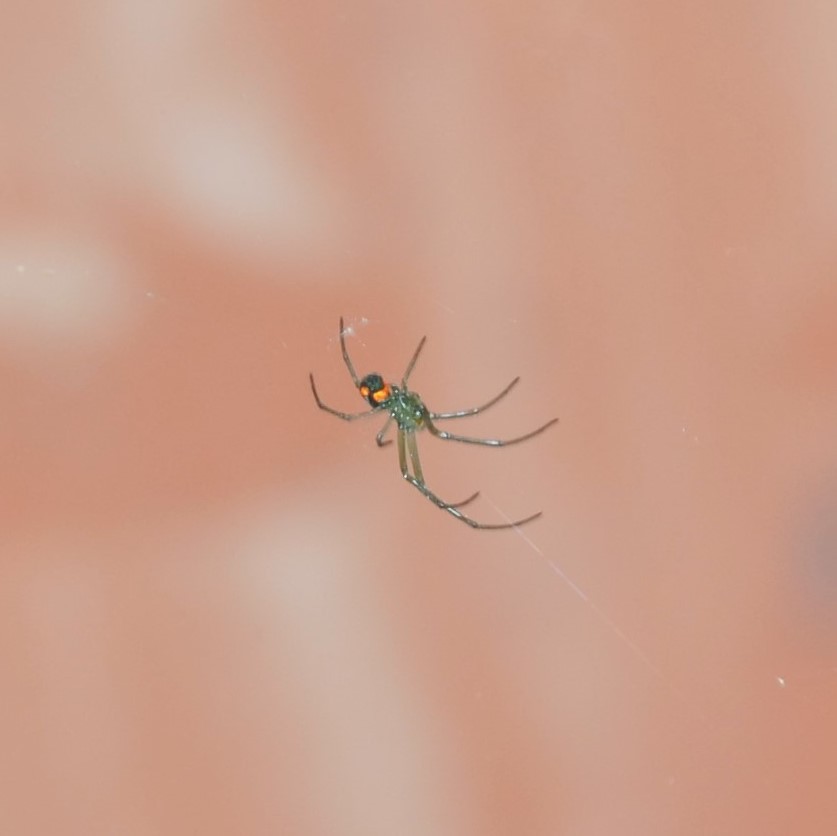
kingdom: Animalia
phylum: Arthropoda
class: Arachnida
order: Araneae
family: Tetragnathidae
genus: Leucauge
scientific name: Leucauge argyrobapta
